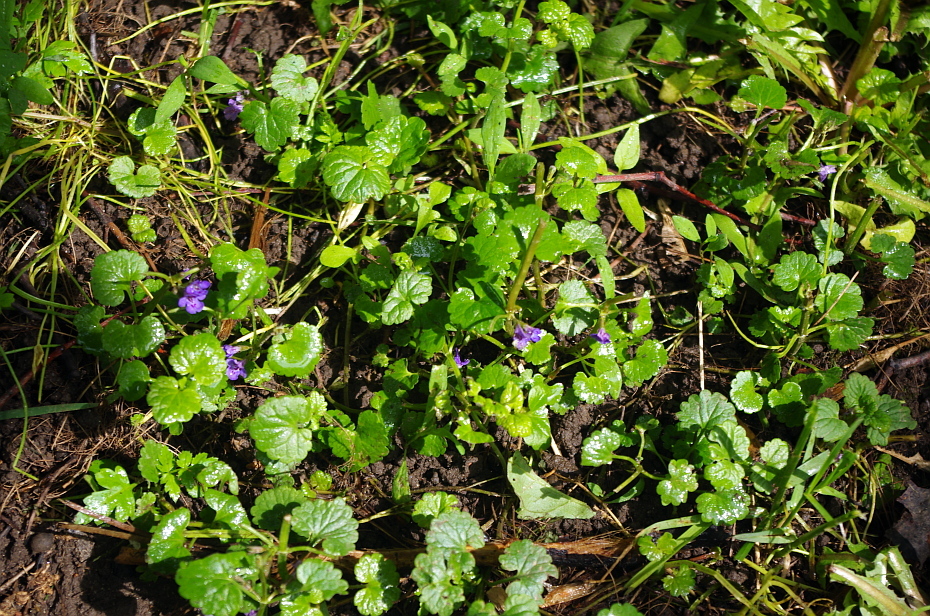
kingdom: Plantae
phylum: Tracheophyta
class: Magnoliopsida
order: Lamiales
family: Lamiaceae
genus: Glechoma
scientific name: Glechoma hederacea
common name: Ground ivy
